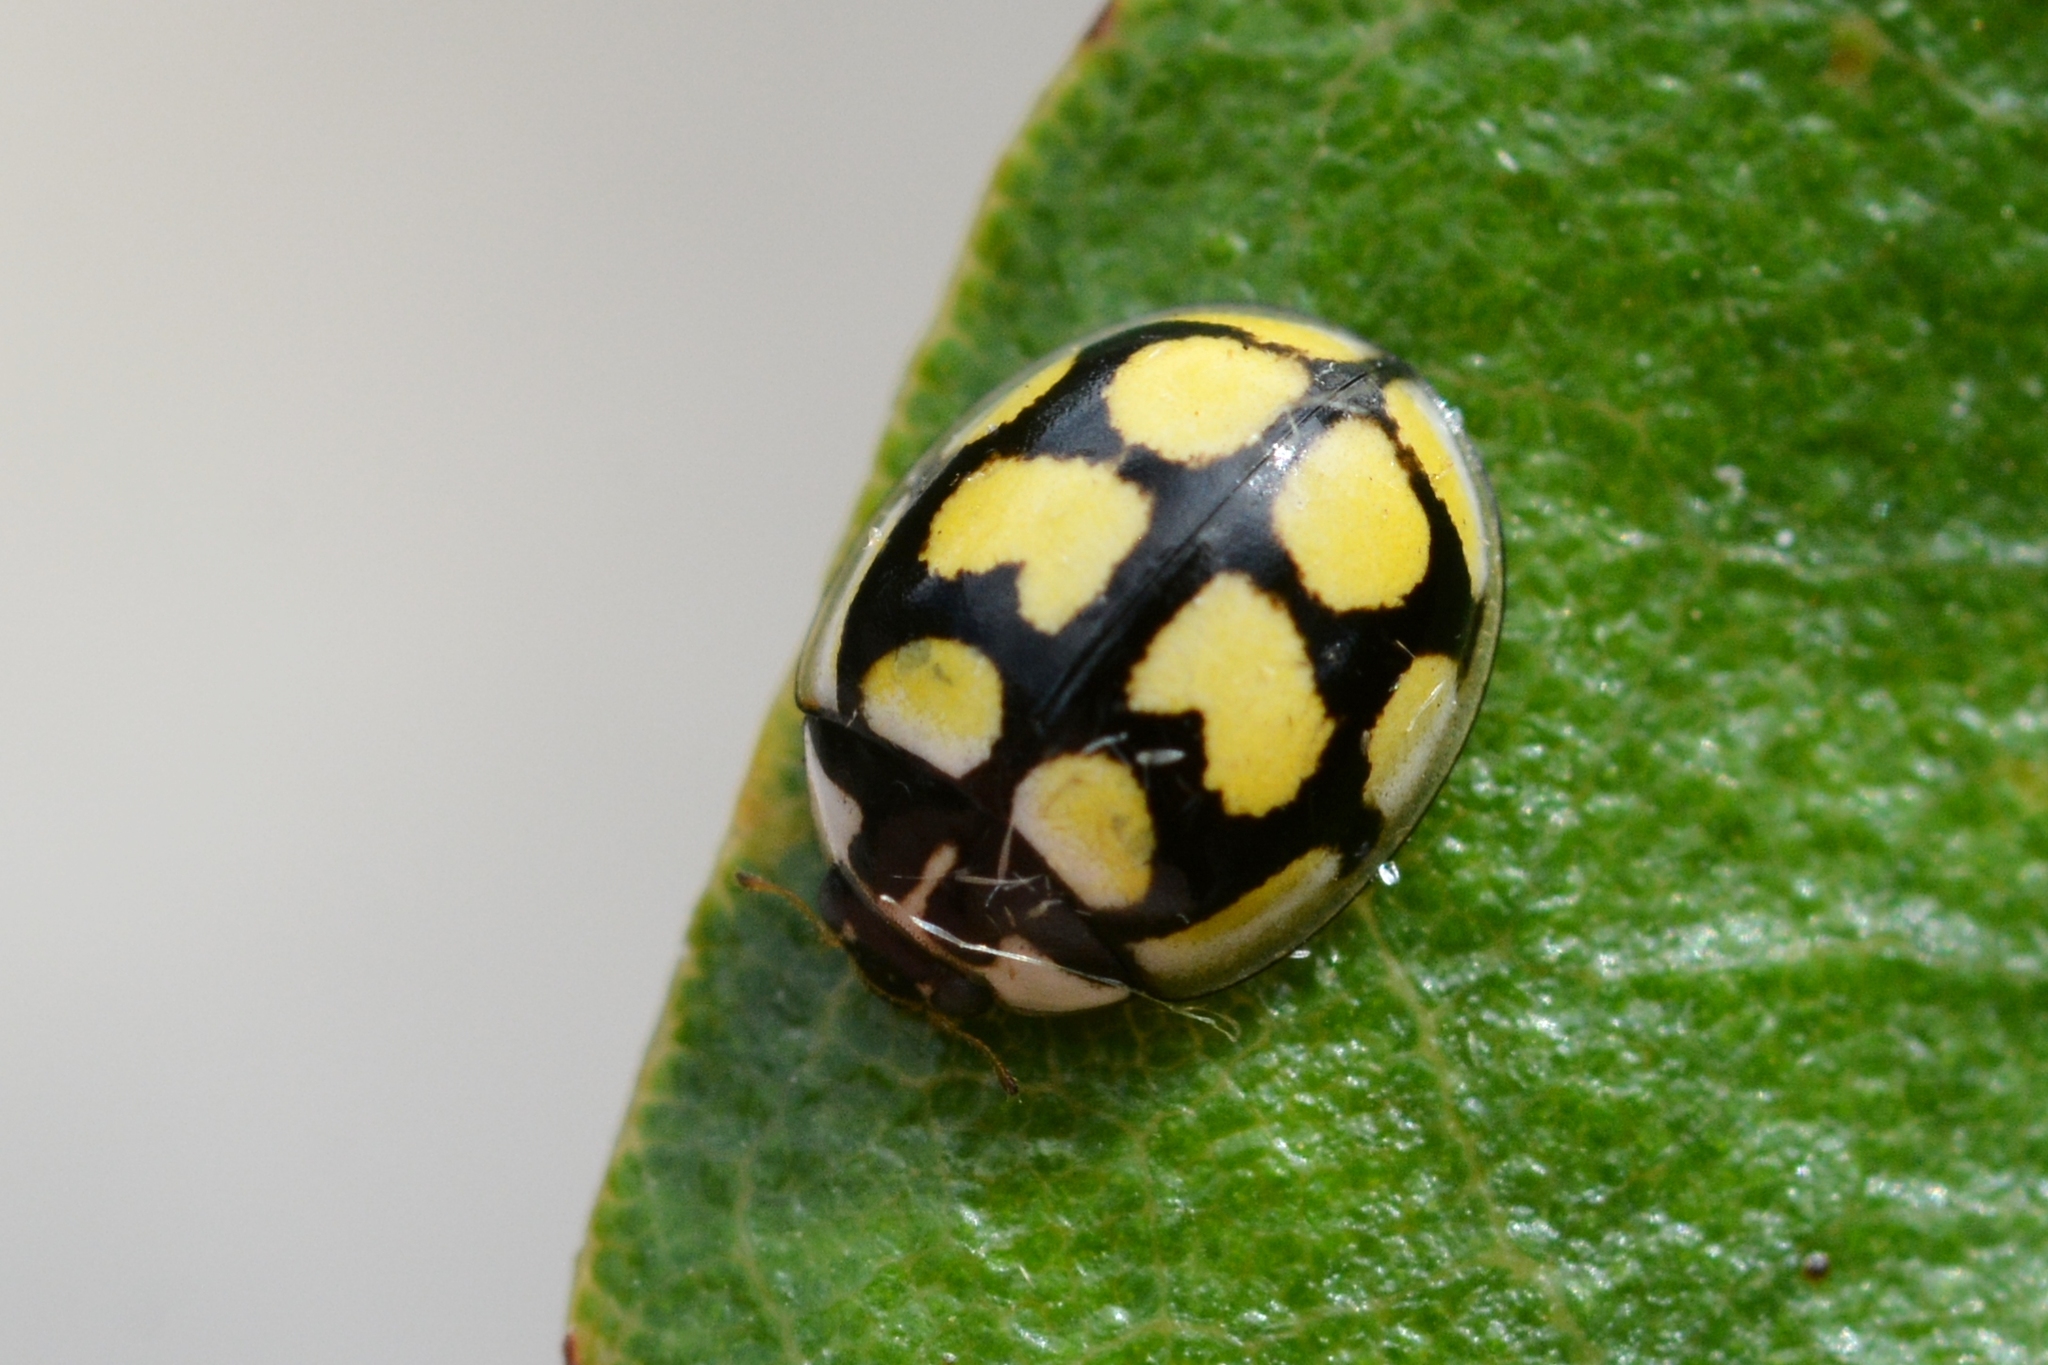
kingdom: Animalia
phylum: Arthropoda
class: Insecta
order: Coleoptera
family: Coccinellidae
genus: Oenopia
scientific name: Oenopia lyncea
